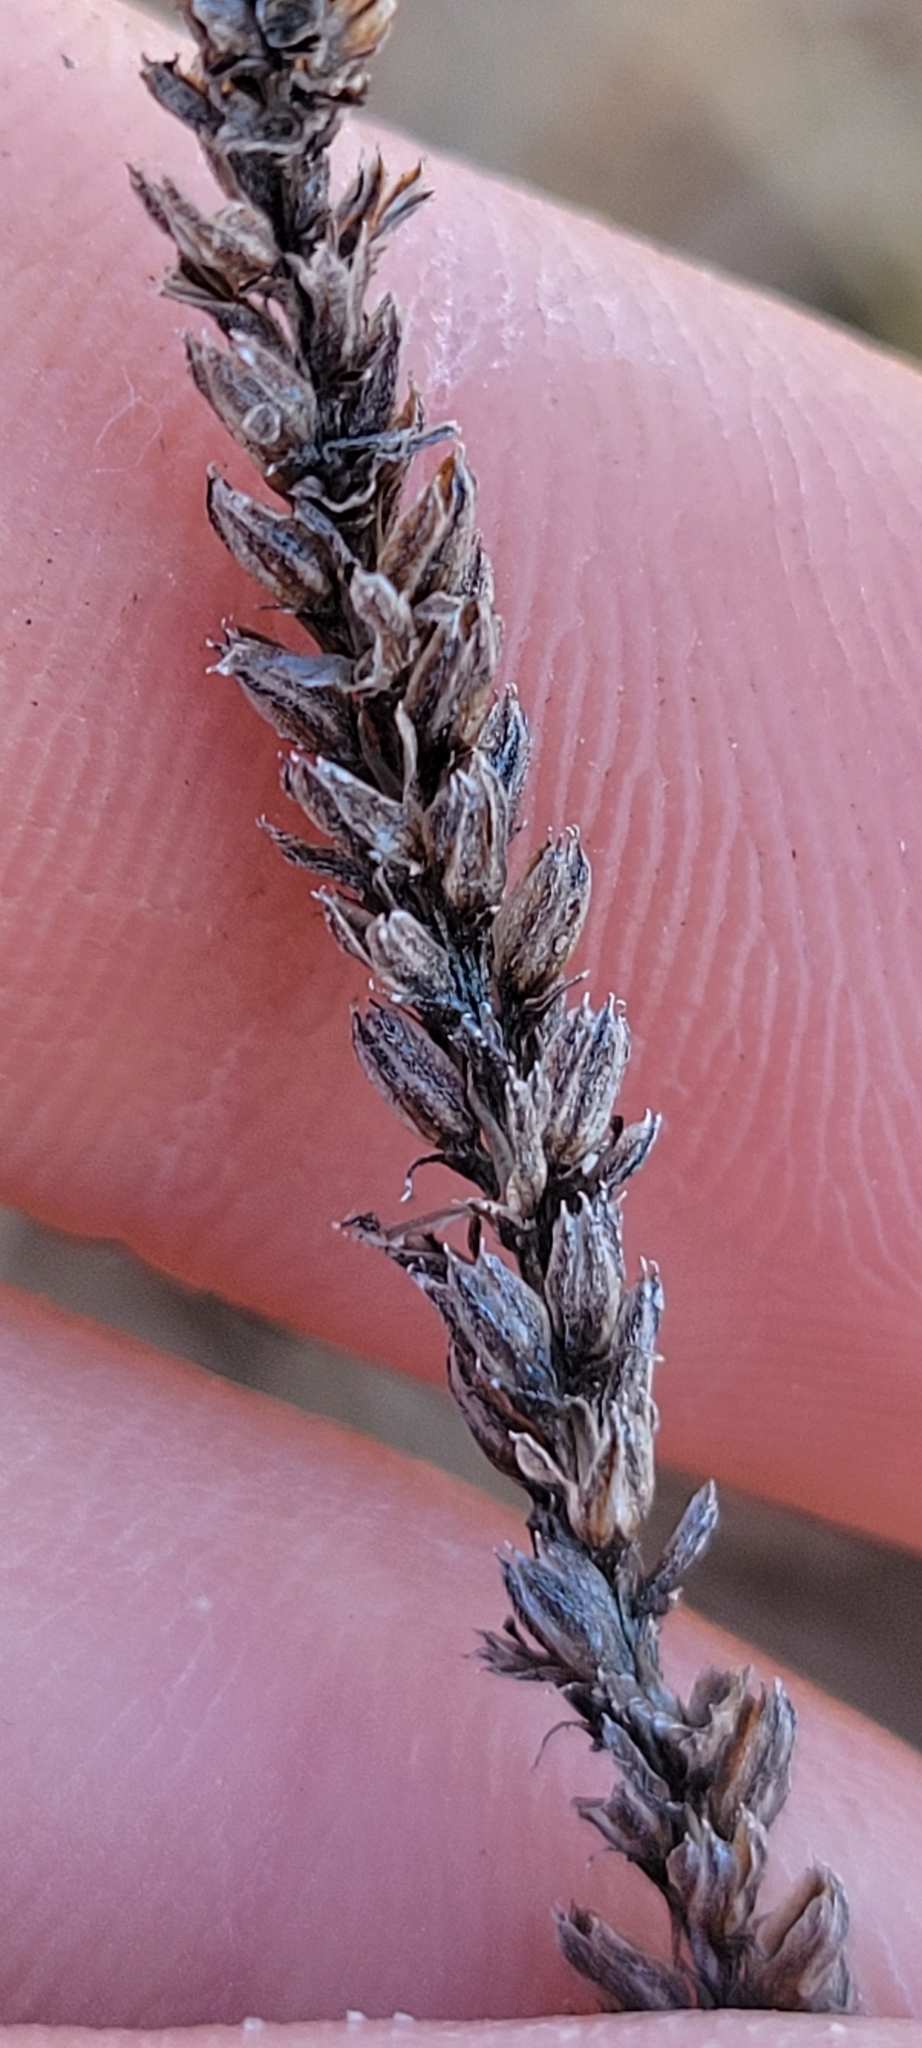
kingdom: Plantae
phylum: Tracheophyta
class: Magnoliopsida
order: Lamiales
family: Verbenaceae
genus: Verbena
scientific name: Verbena hastata
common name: American blue vervain
